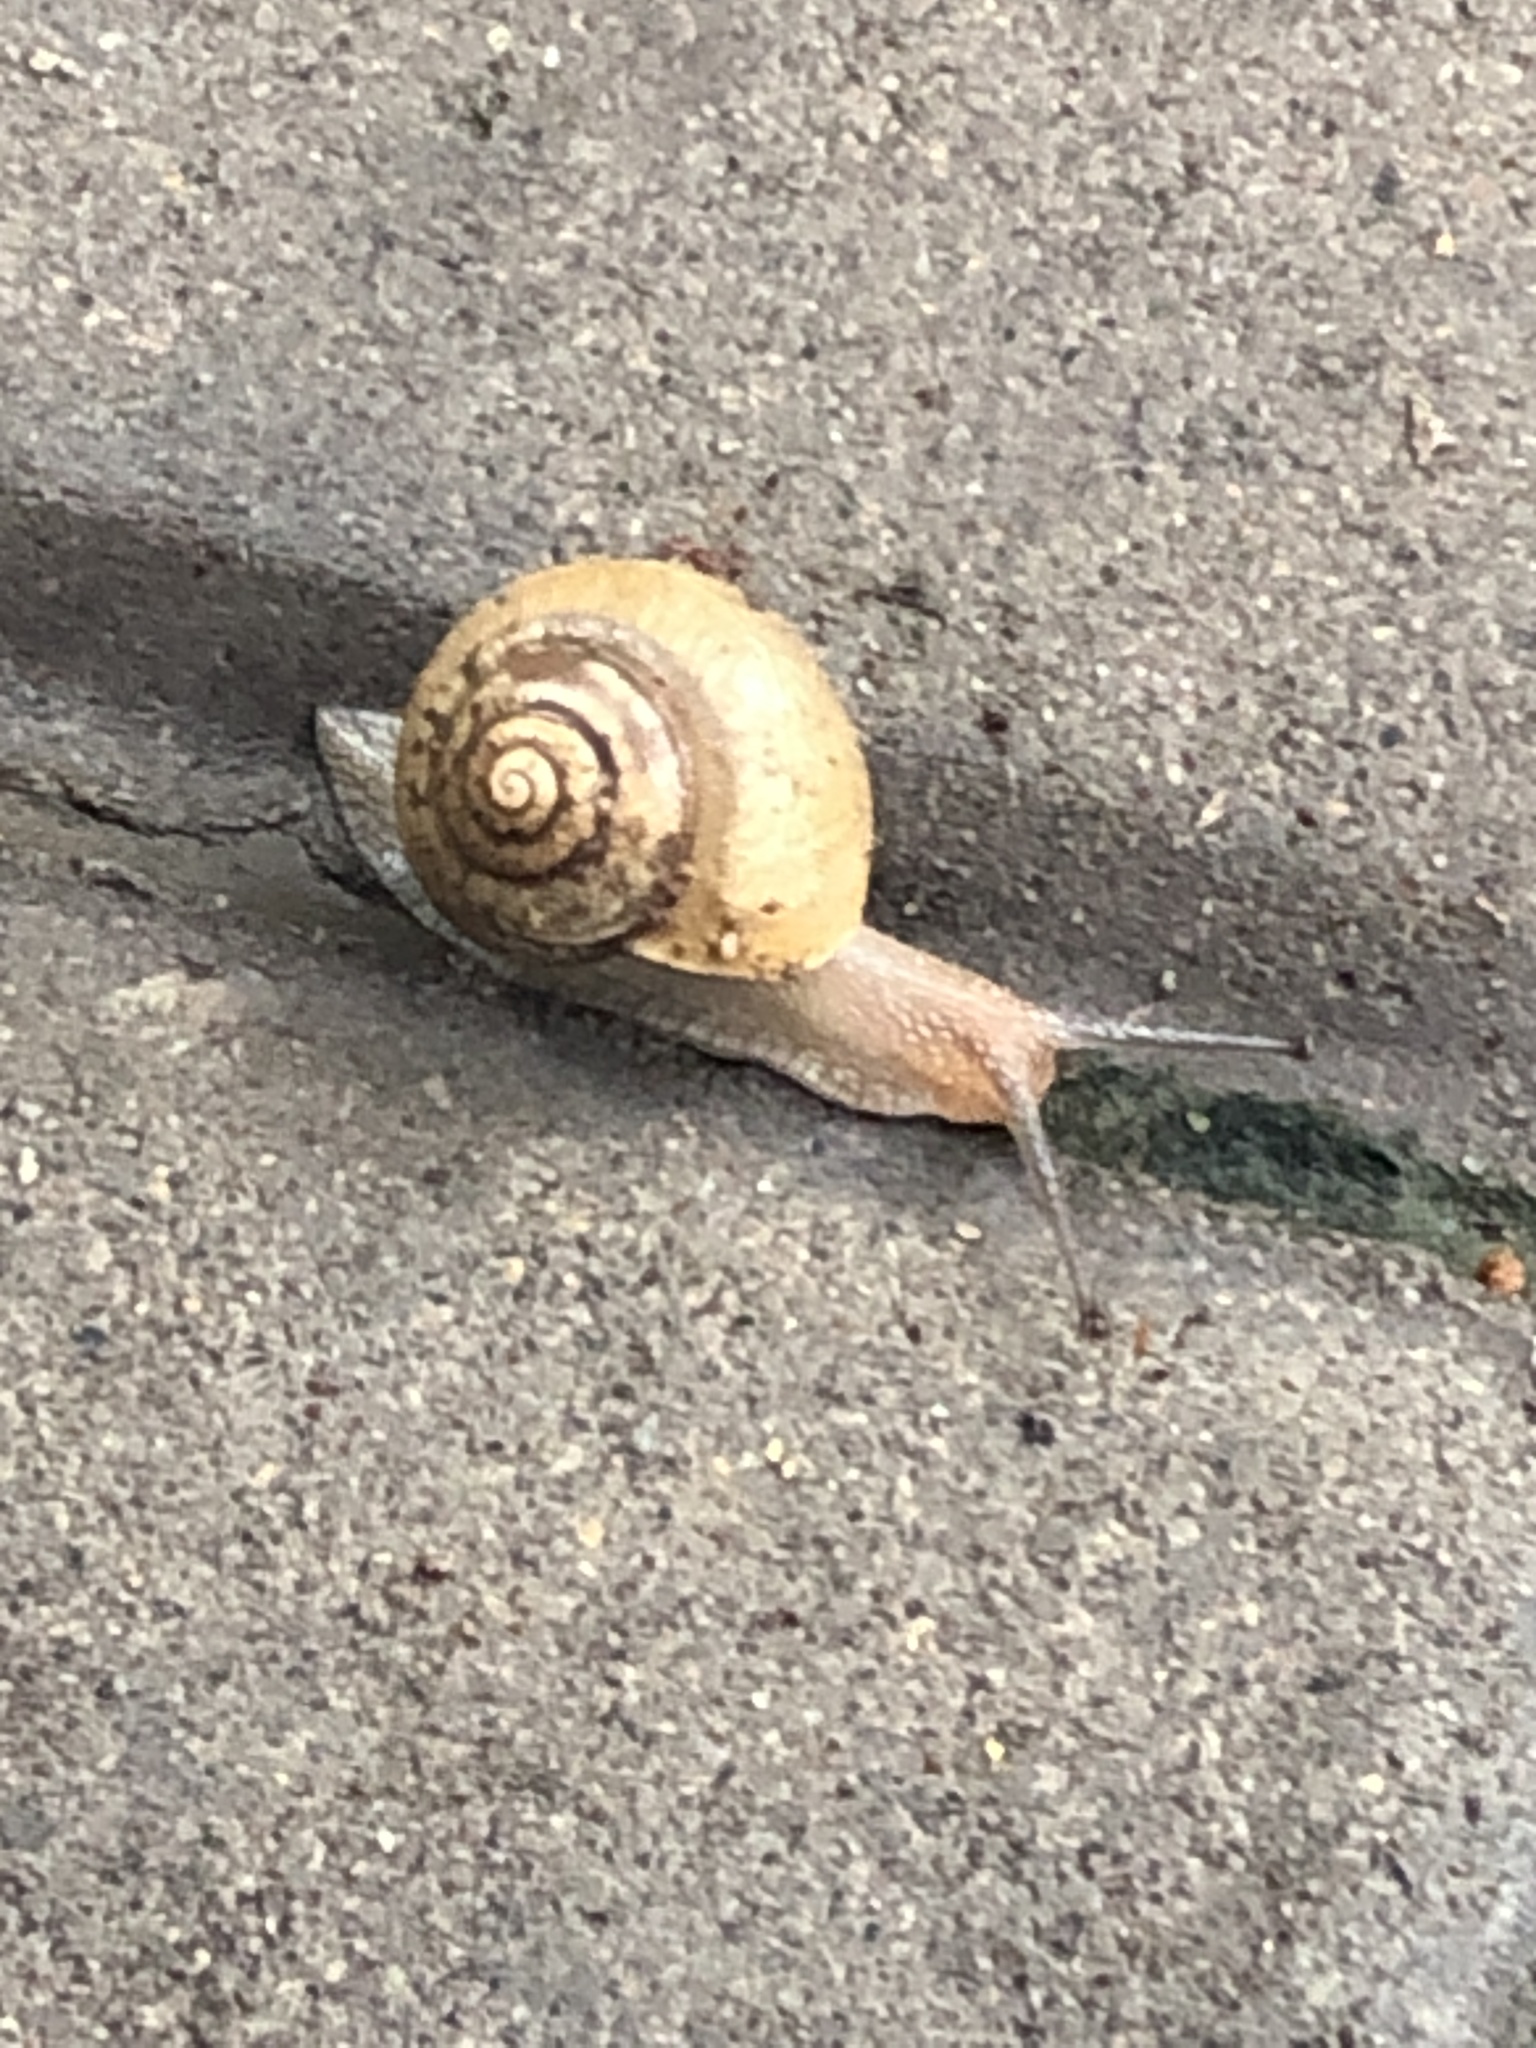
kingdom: Animalia
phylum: Mollusca
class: Gastropoda
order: Stylommatophora
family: Camaenidae
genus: Acusta
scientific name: Acusta ravida
